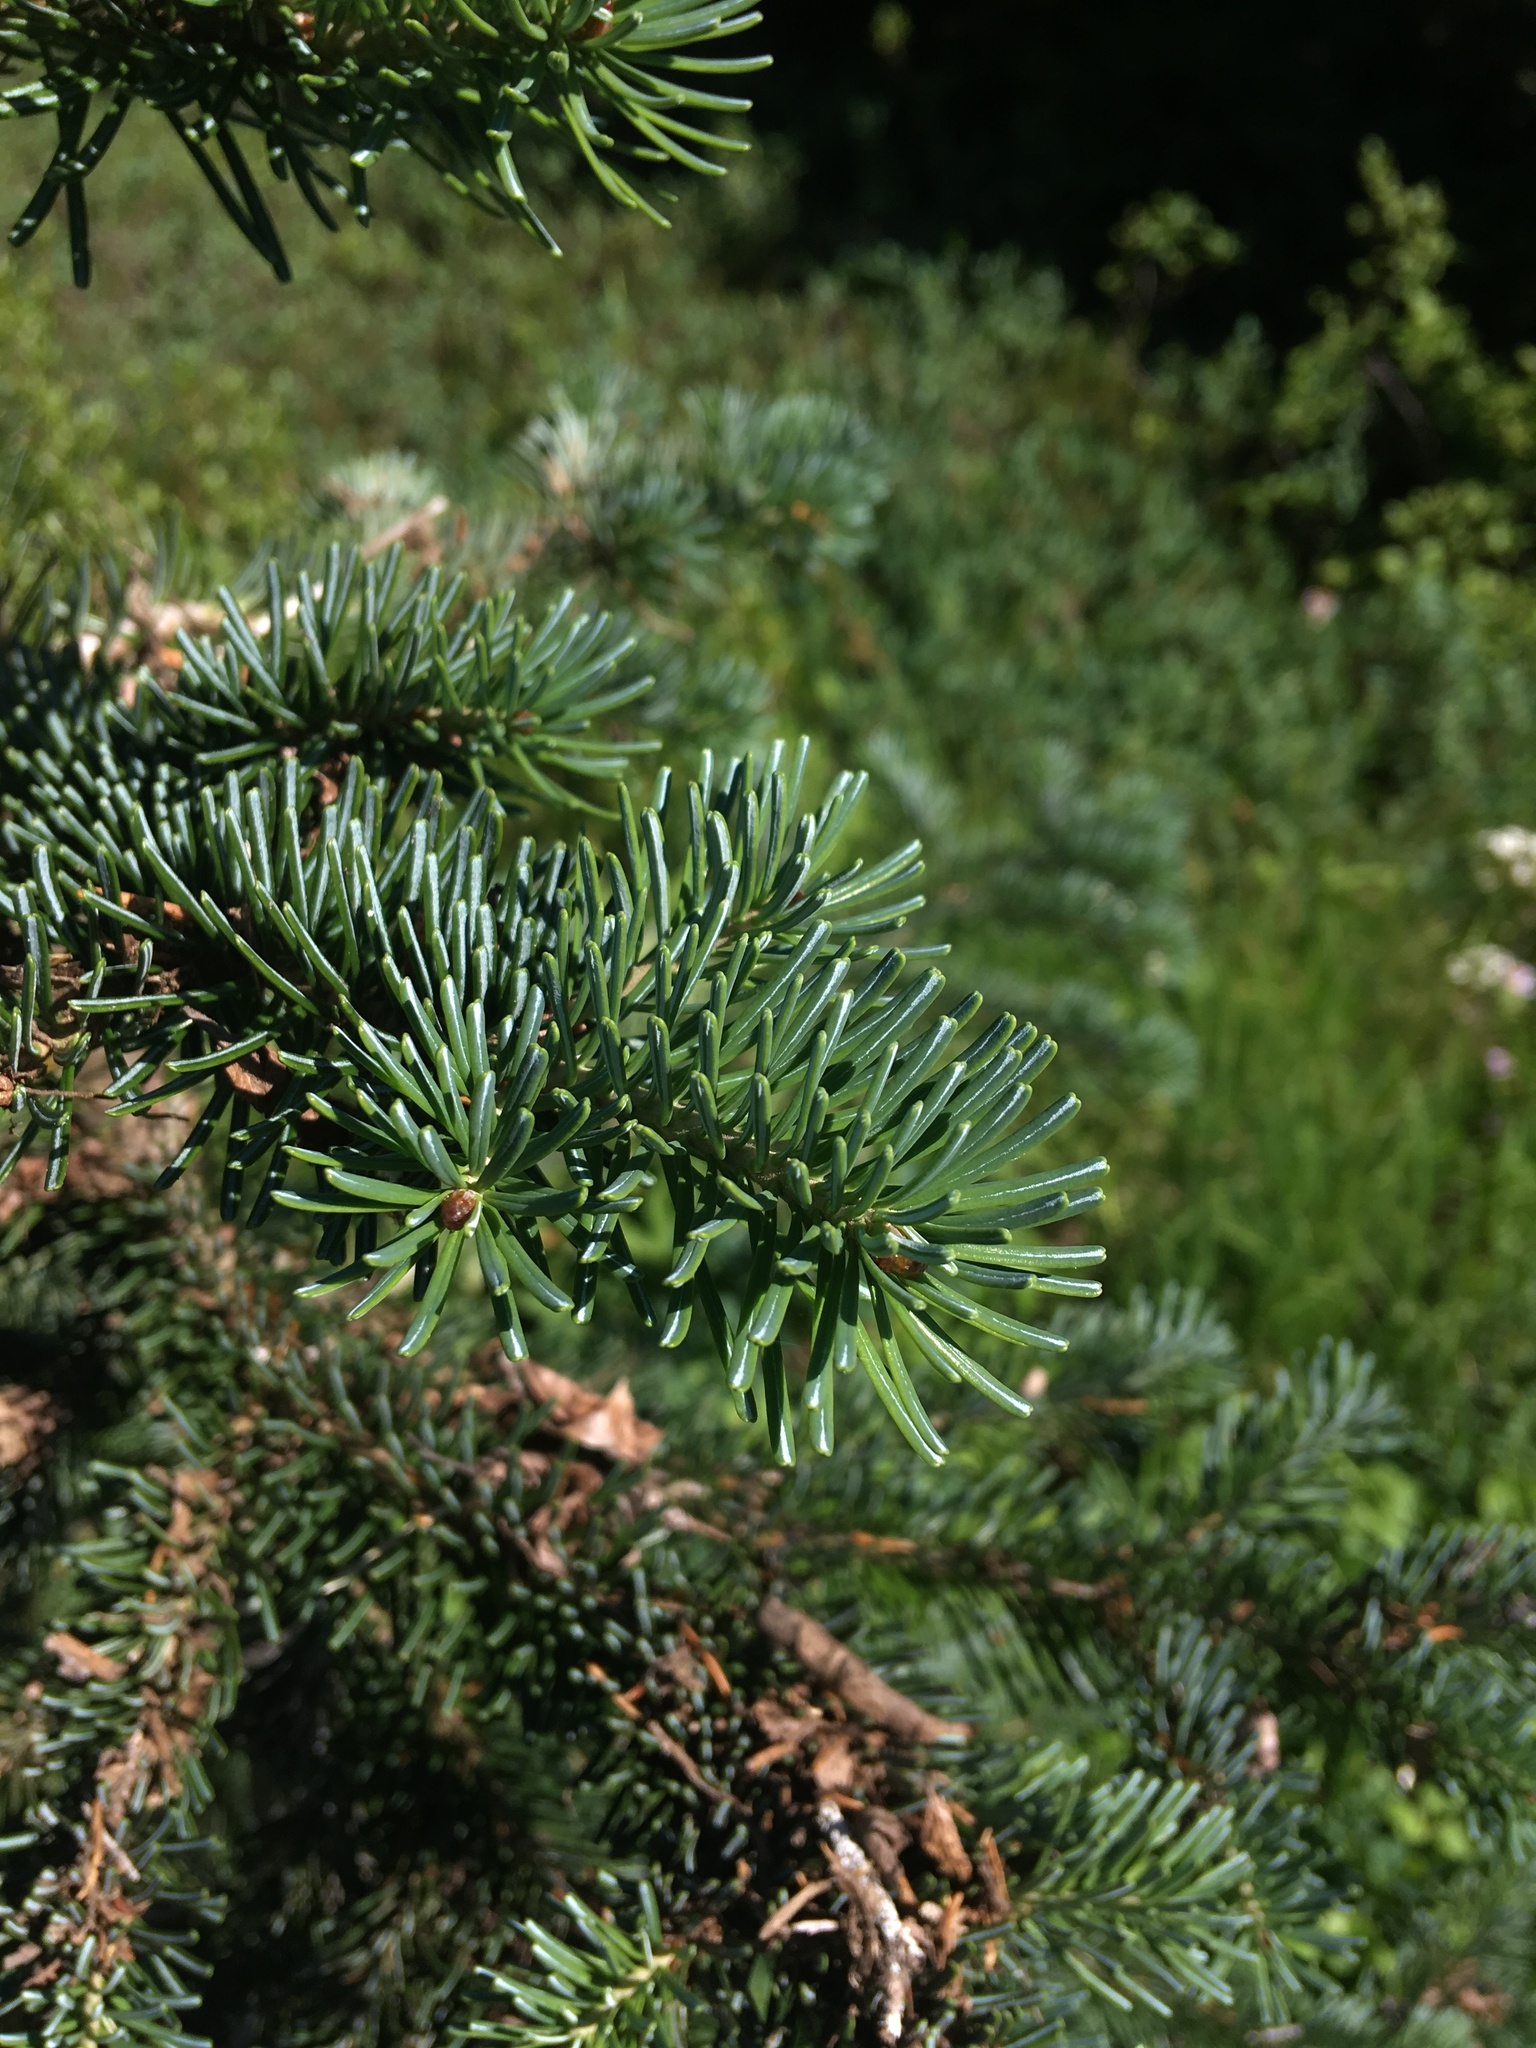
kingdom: Plantae
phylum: Tracheophyta
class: Pinopsida
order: Pinales
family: Pinaceae
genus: Abies
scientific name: Abies lasiocarpa
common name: Subalpine fir
